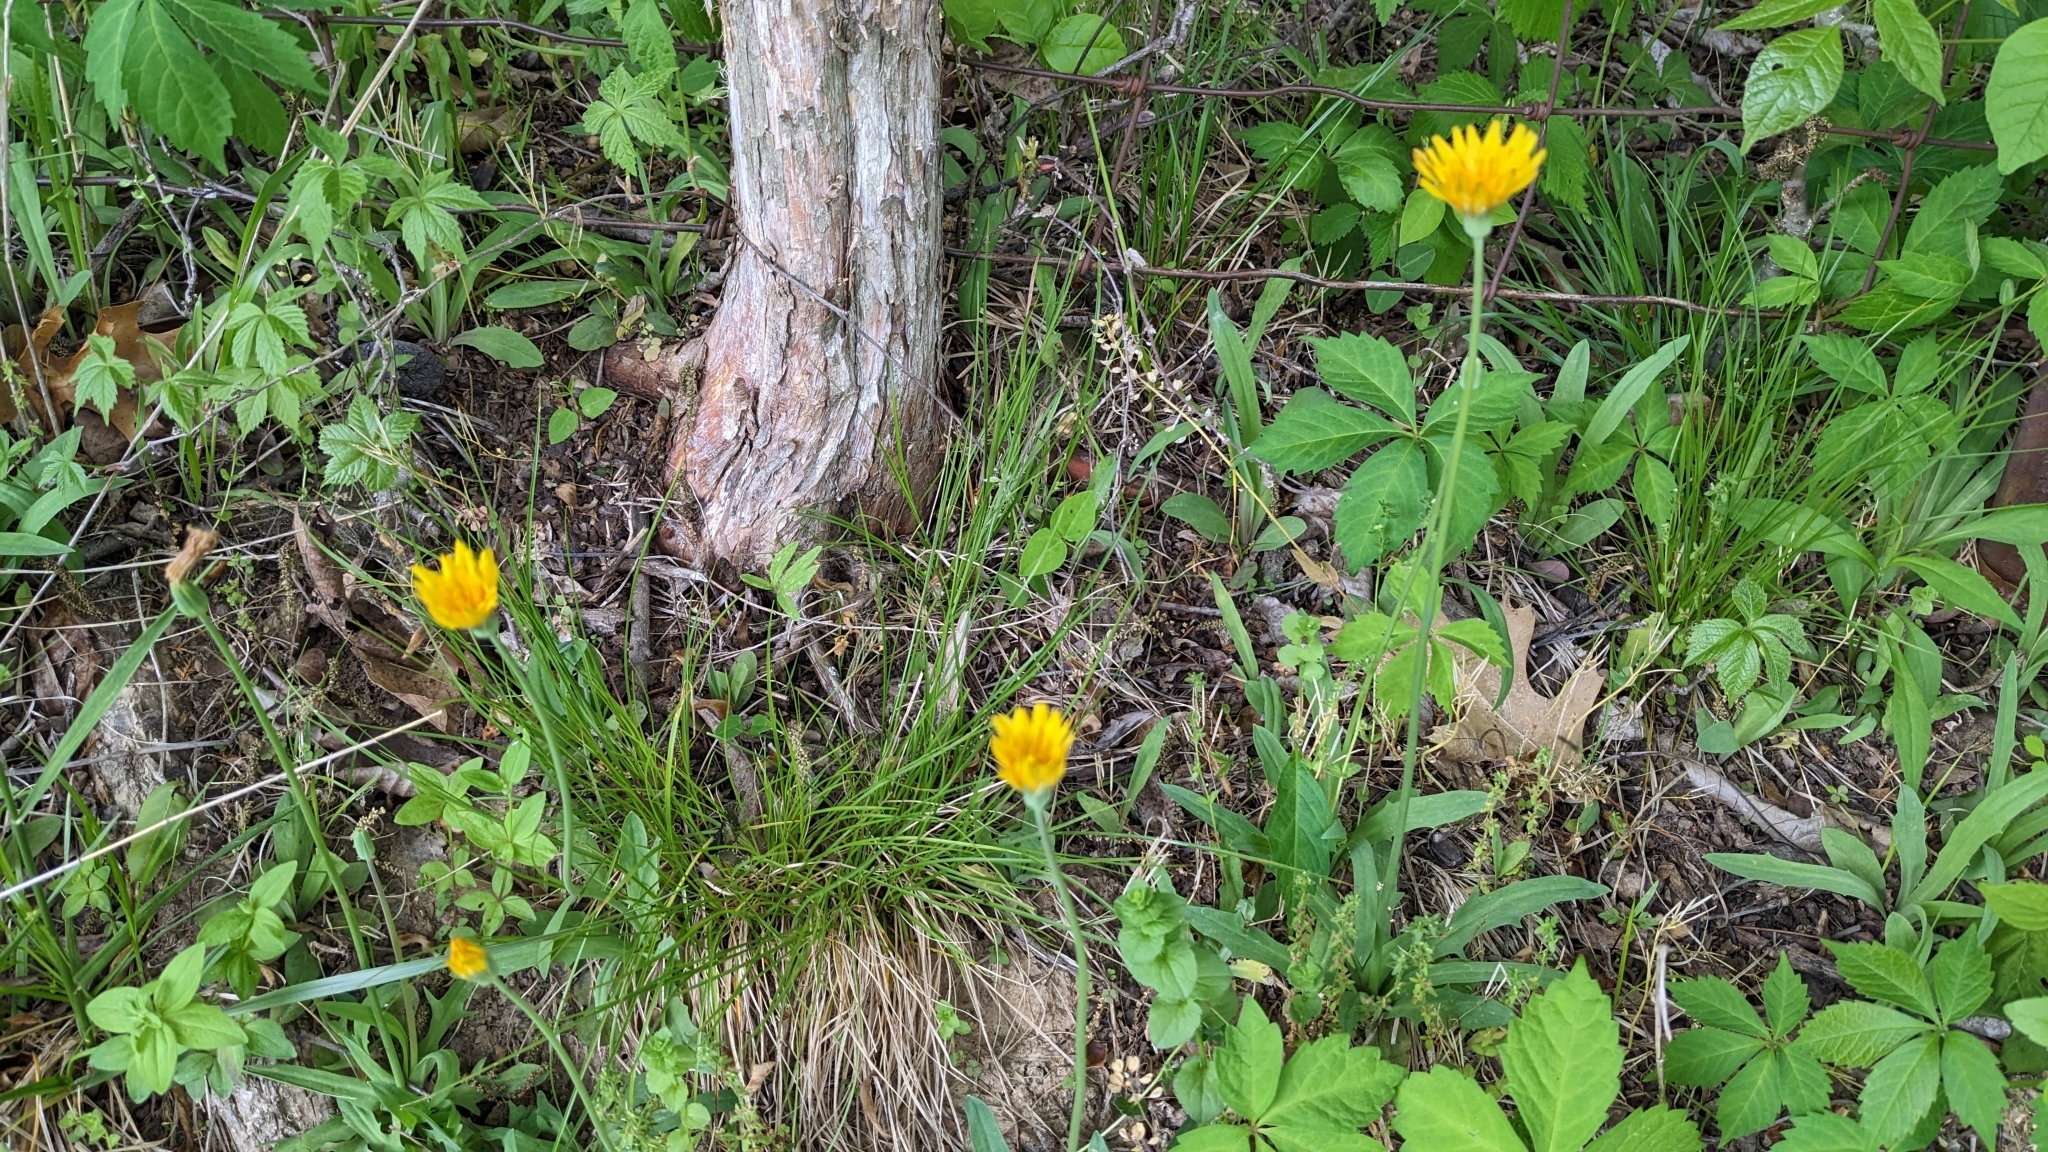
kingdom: Plantae
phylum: Tracheophyta
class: Magnoliopsida
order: Asterales
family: Asteraceae
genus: Krigia
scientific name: Krigia dandelion
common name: Colonial dwarf-dandelion
